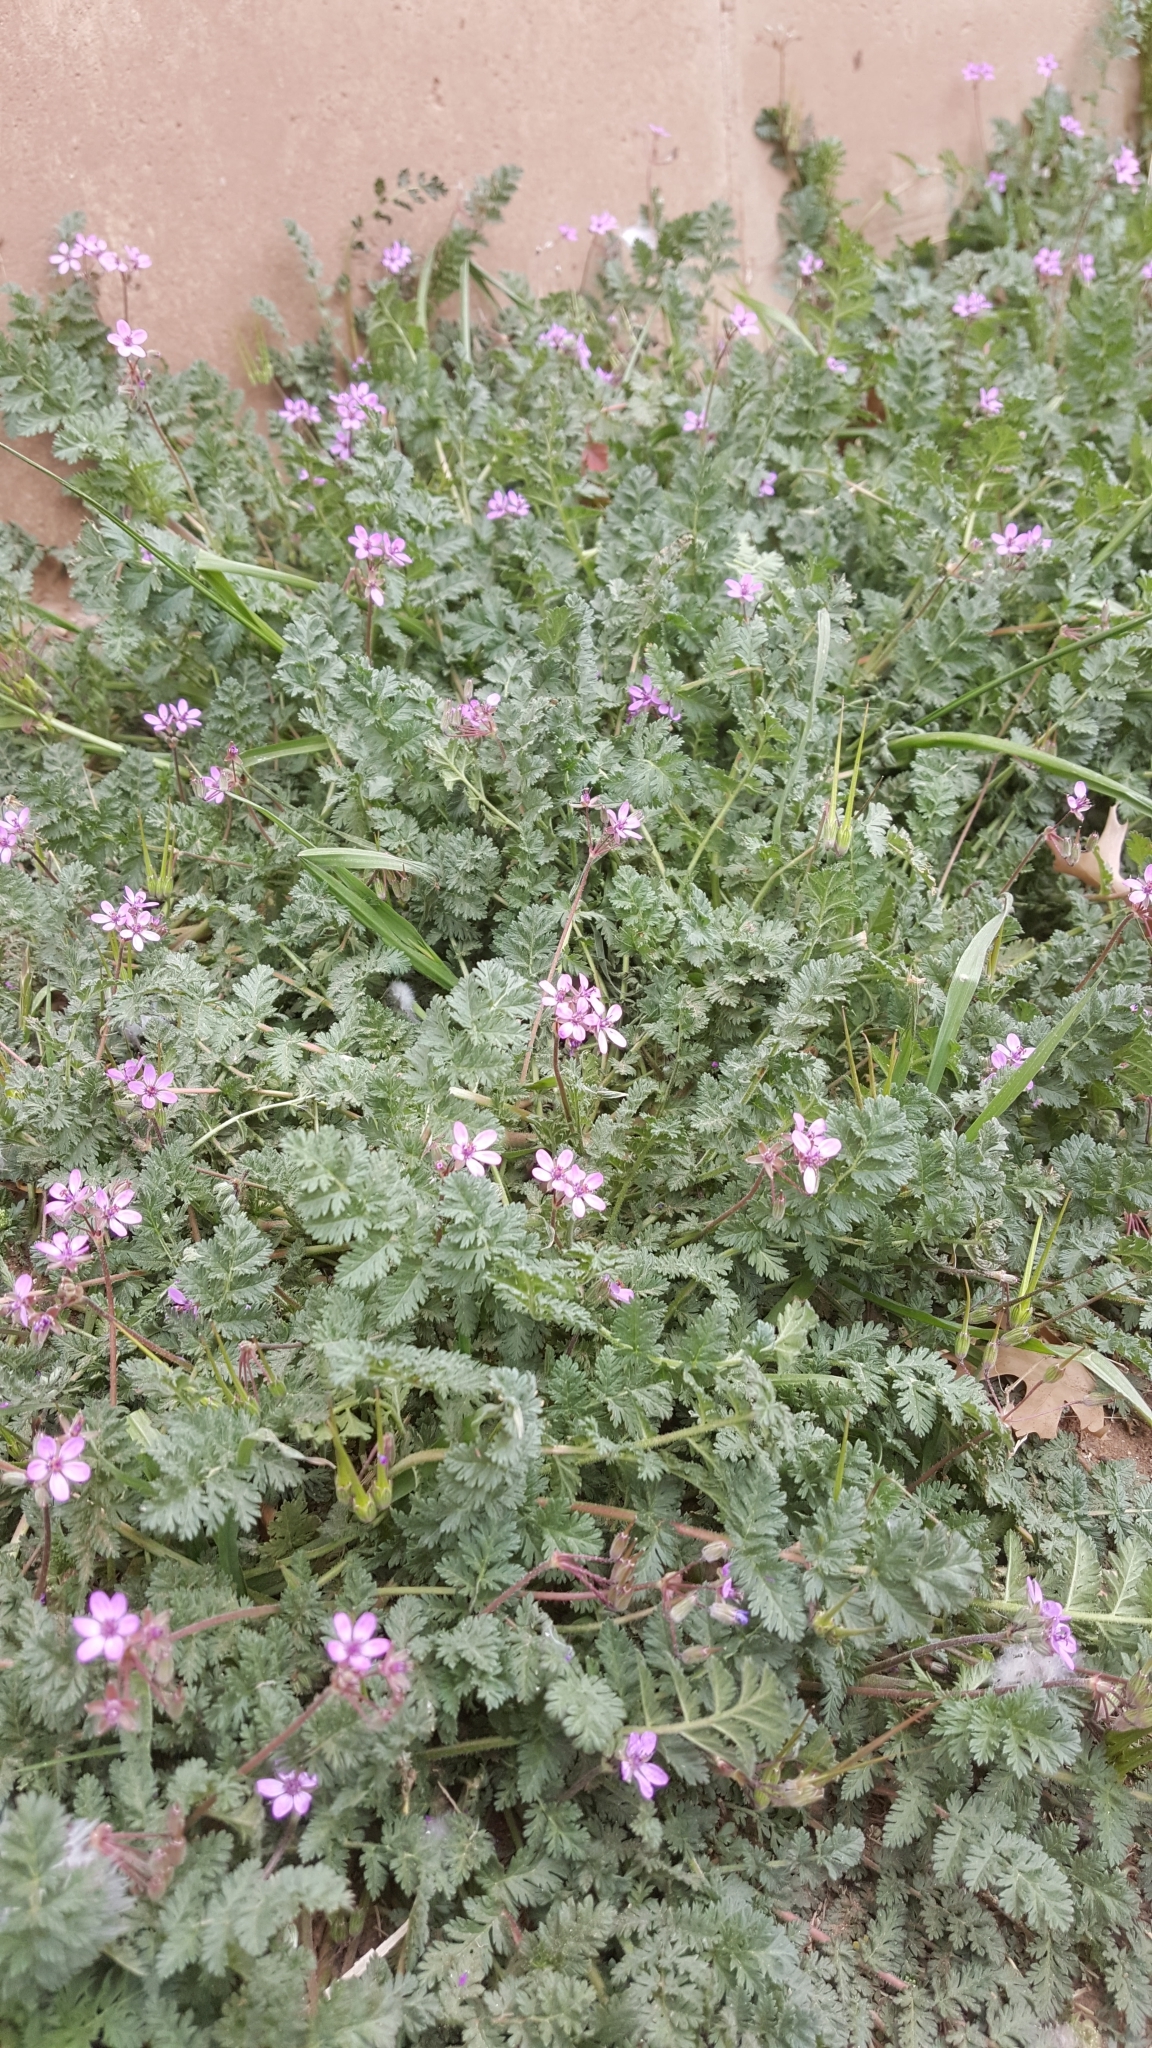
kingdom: Plantae
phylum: Tracheophyta
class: Magnoliopsida
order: Geraniales
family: Geraniaceae
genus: Erodium
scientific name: Erodium cicutarium
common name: Common stork's-bill
